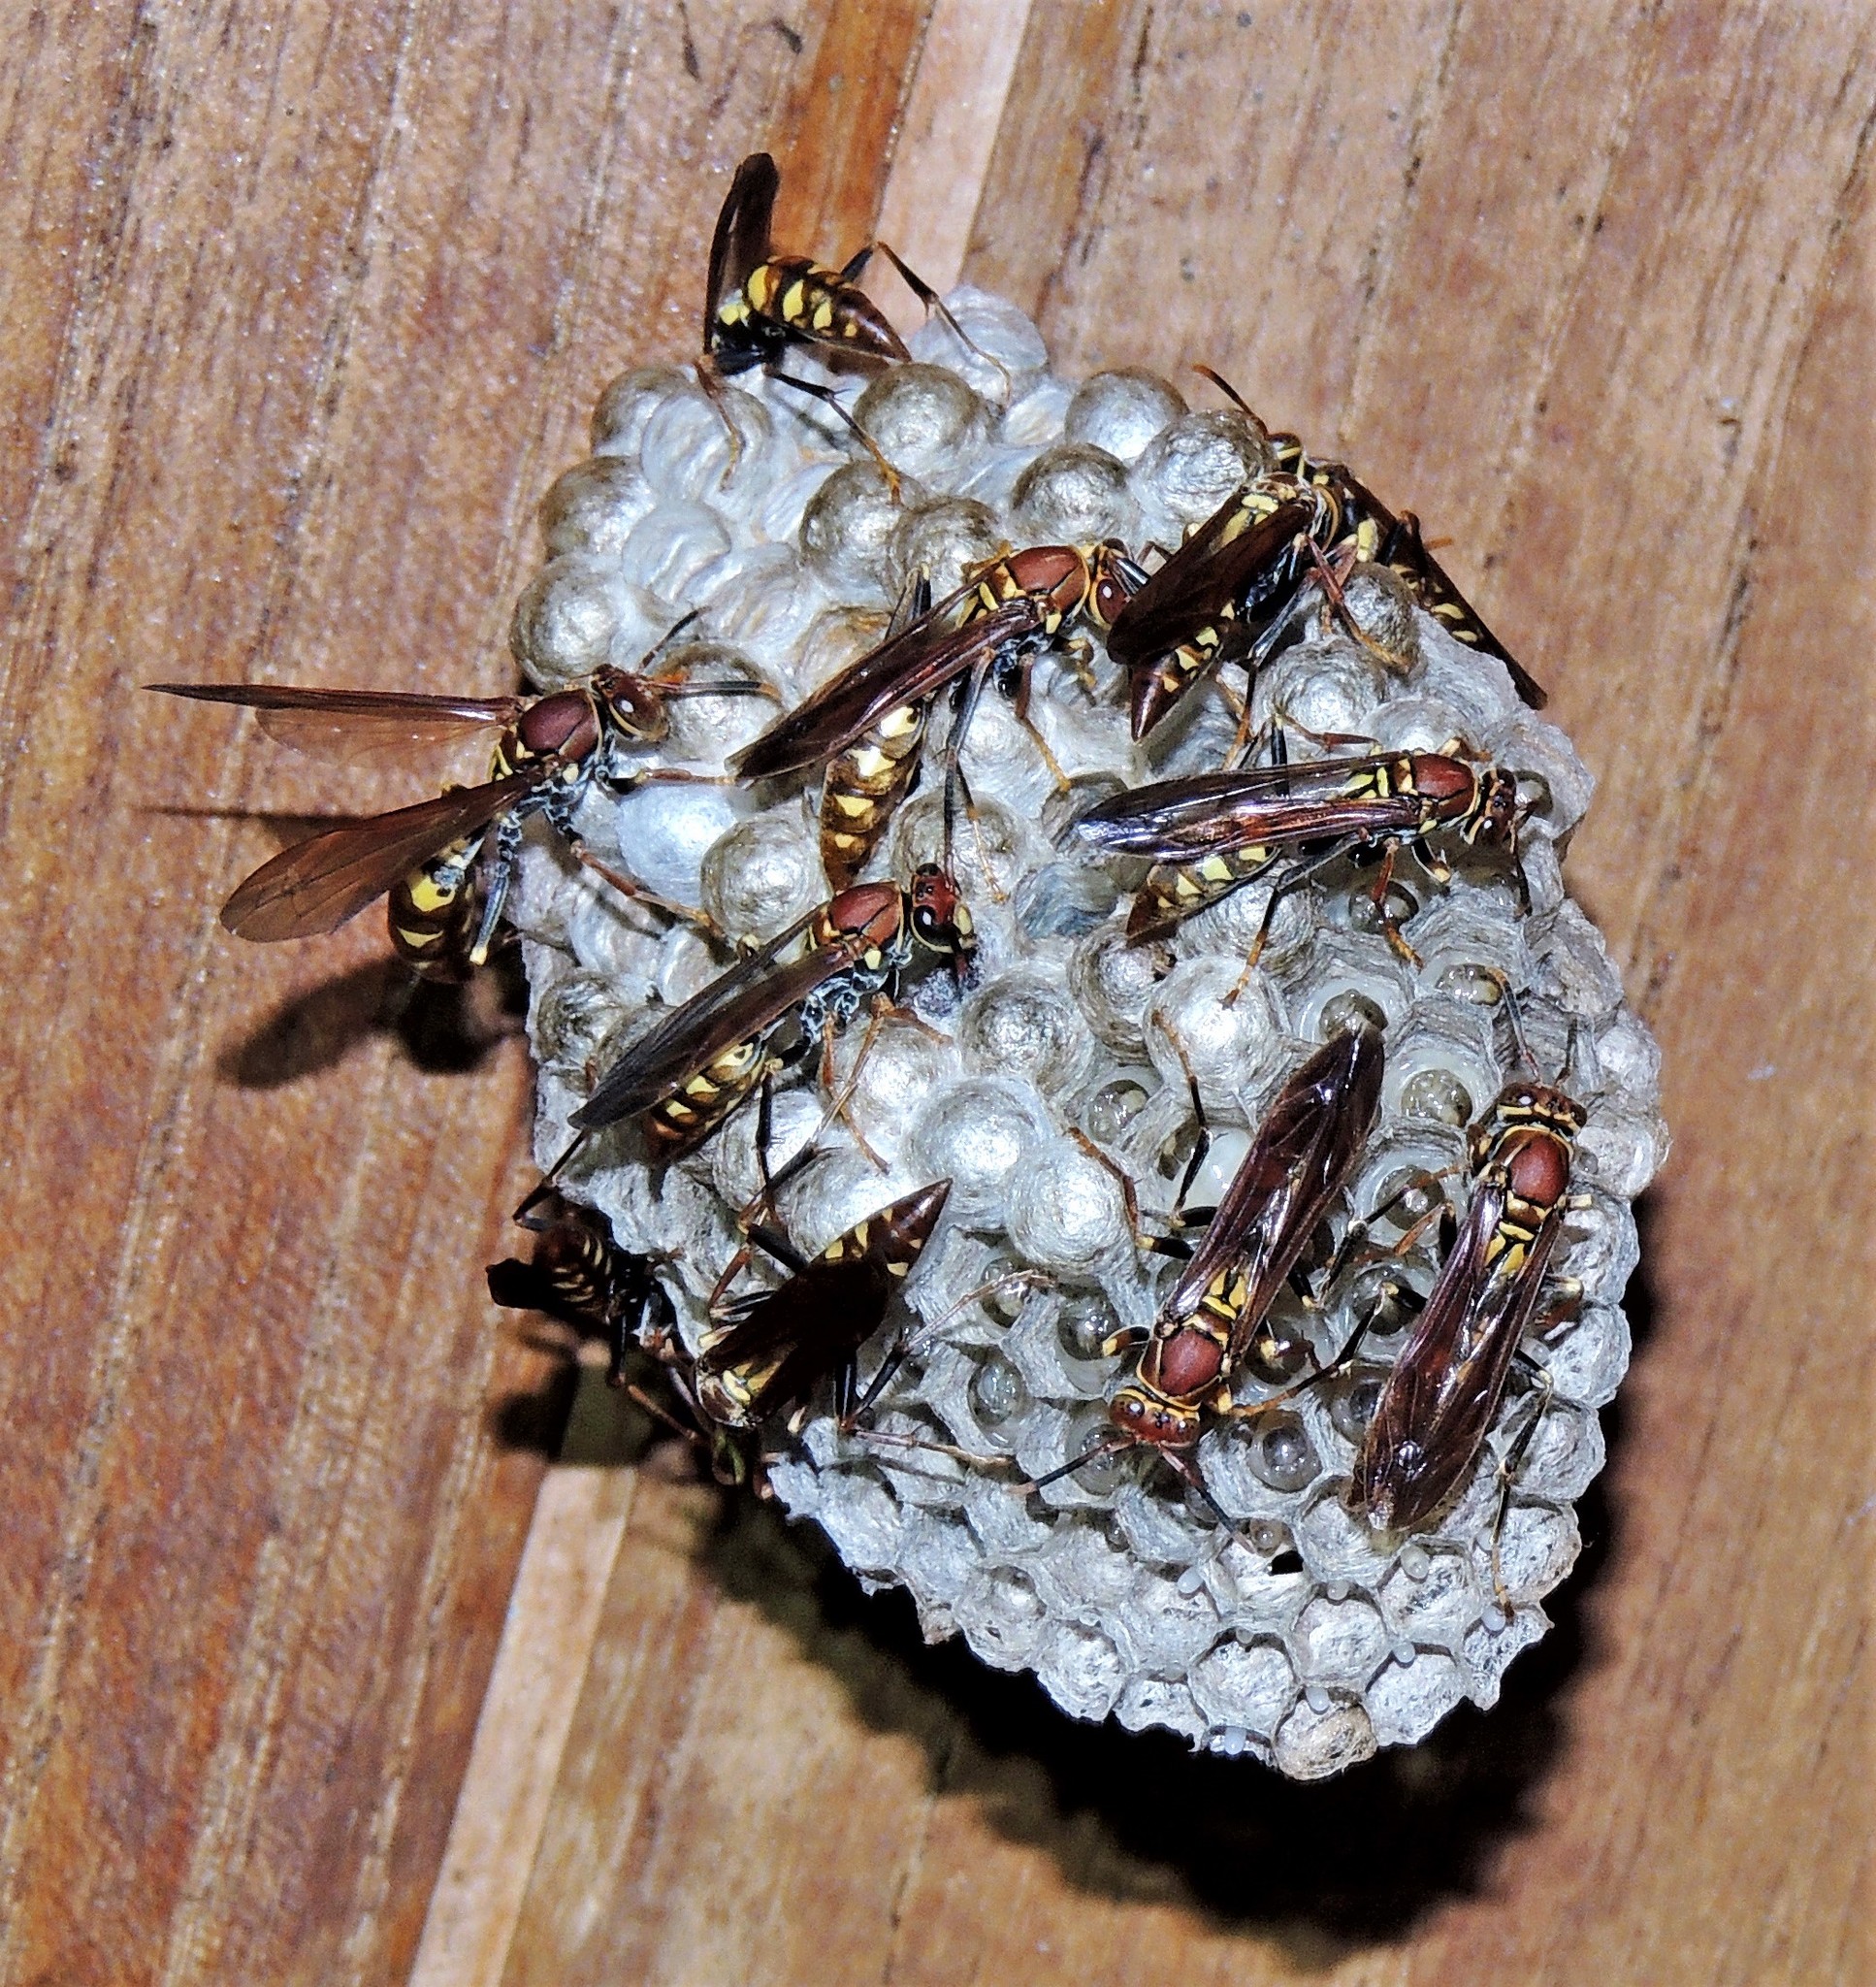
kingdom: Animalia
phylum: Arthropoda
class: Insecta
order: Hymenoptera
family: Eumenidae
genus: Polistes
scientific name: Polistes versicolor
